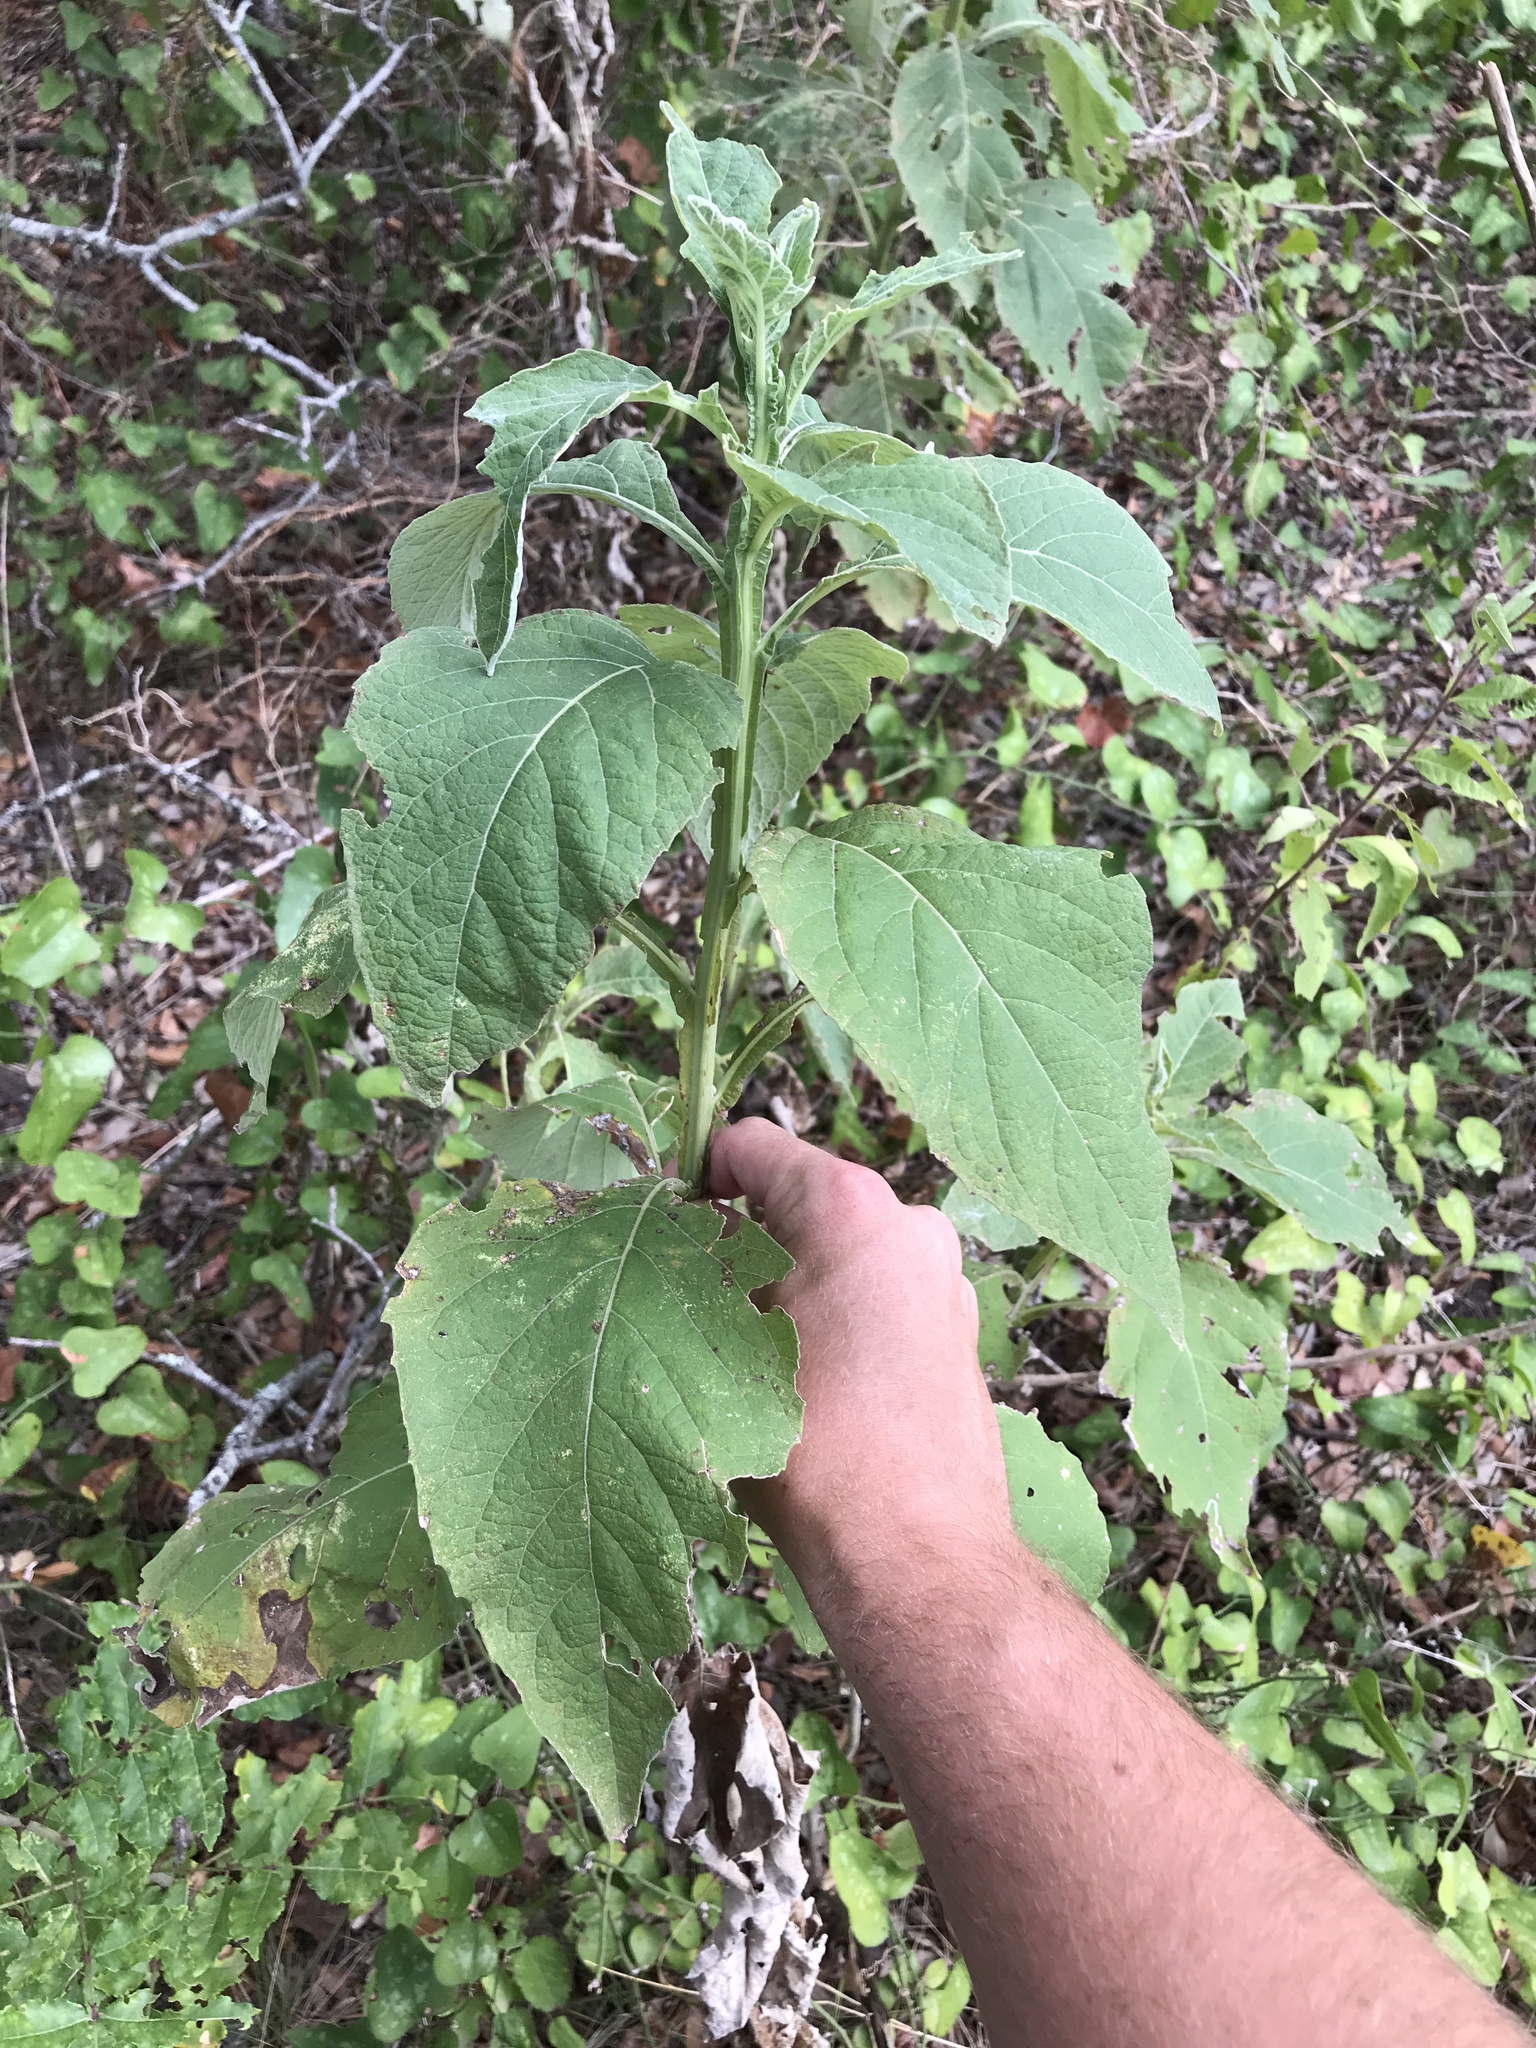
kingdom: Plantae
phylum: Tracheophyta
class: Magnoliopsida
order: Asterales
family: Asteraceae
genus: Verbesina
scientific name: Verbesina virginica
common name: Frostweed
